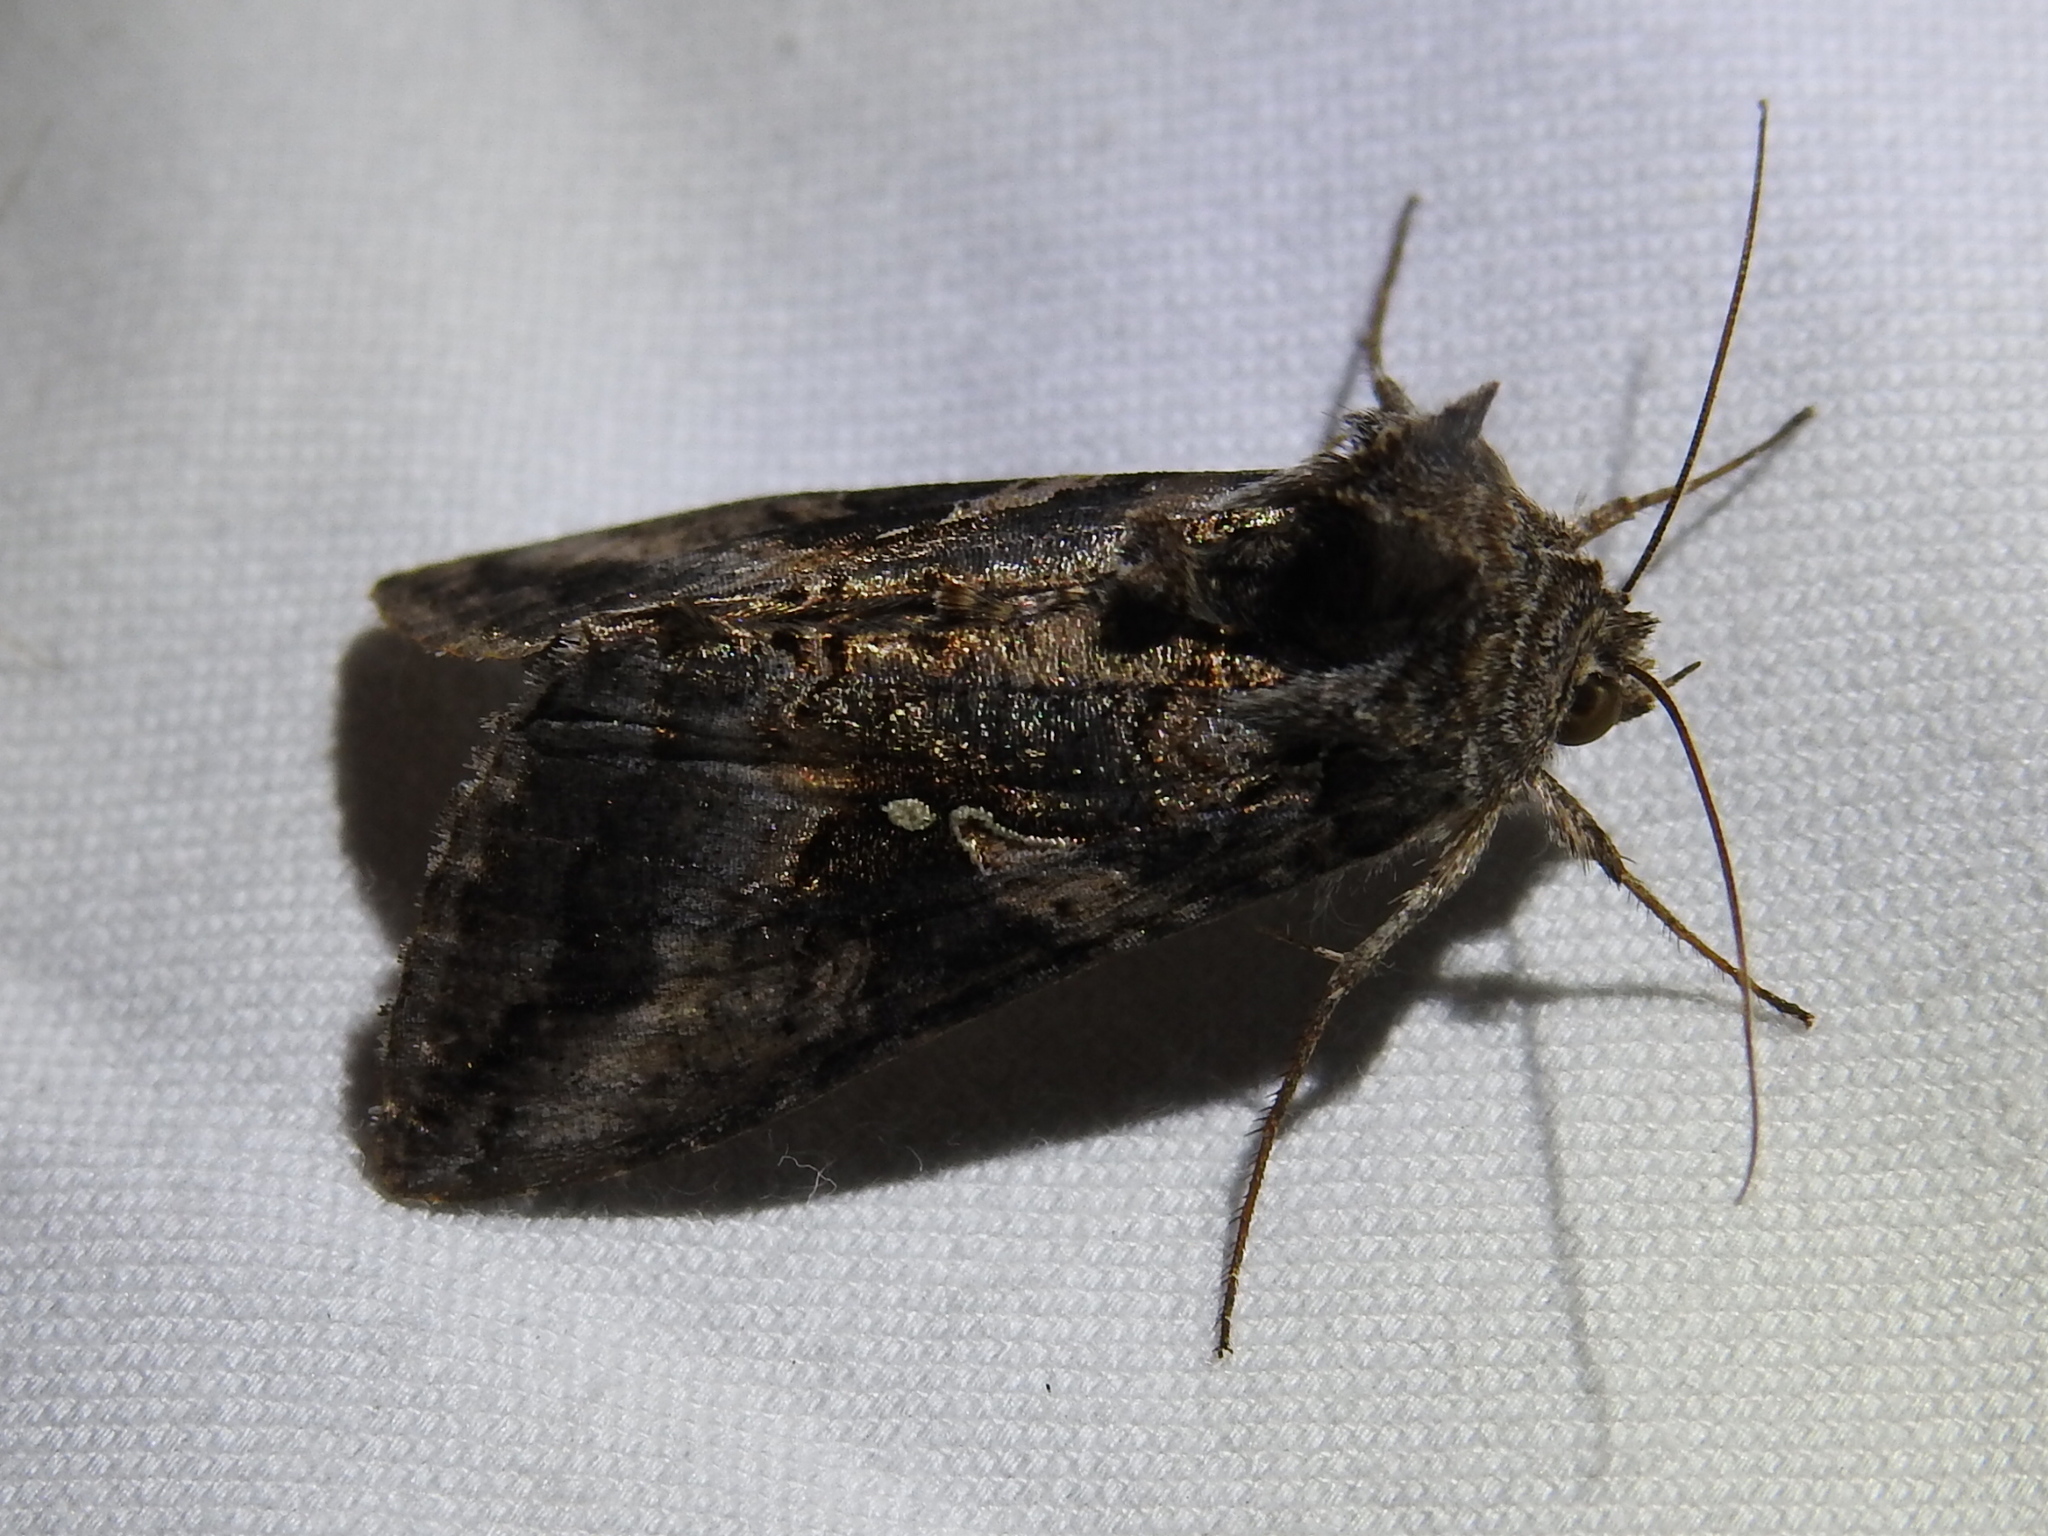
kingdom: Animalia
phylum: Arthropoda
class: Insecta
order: Lepidoptera
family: Noctuidae
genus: Rachiplusia
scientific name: Rachiplusia ou
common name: Gray looper moth
